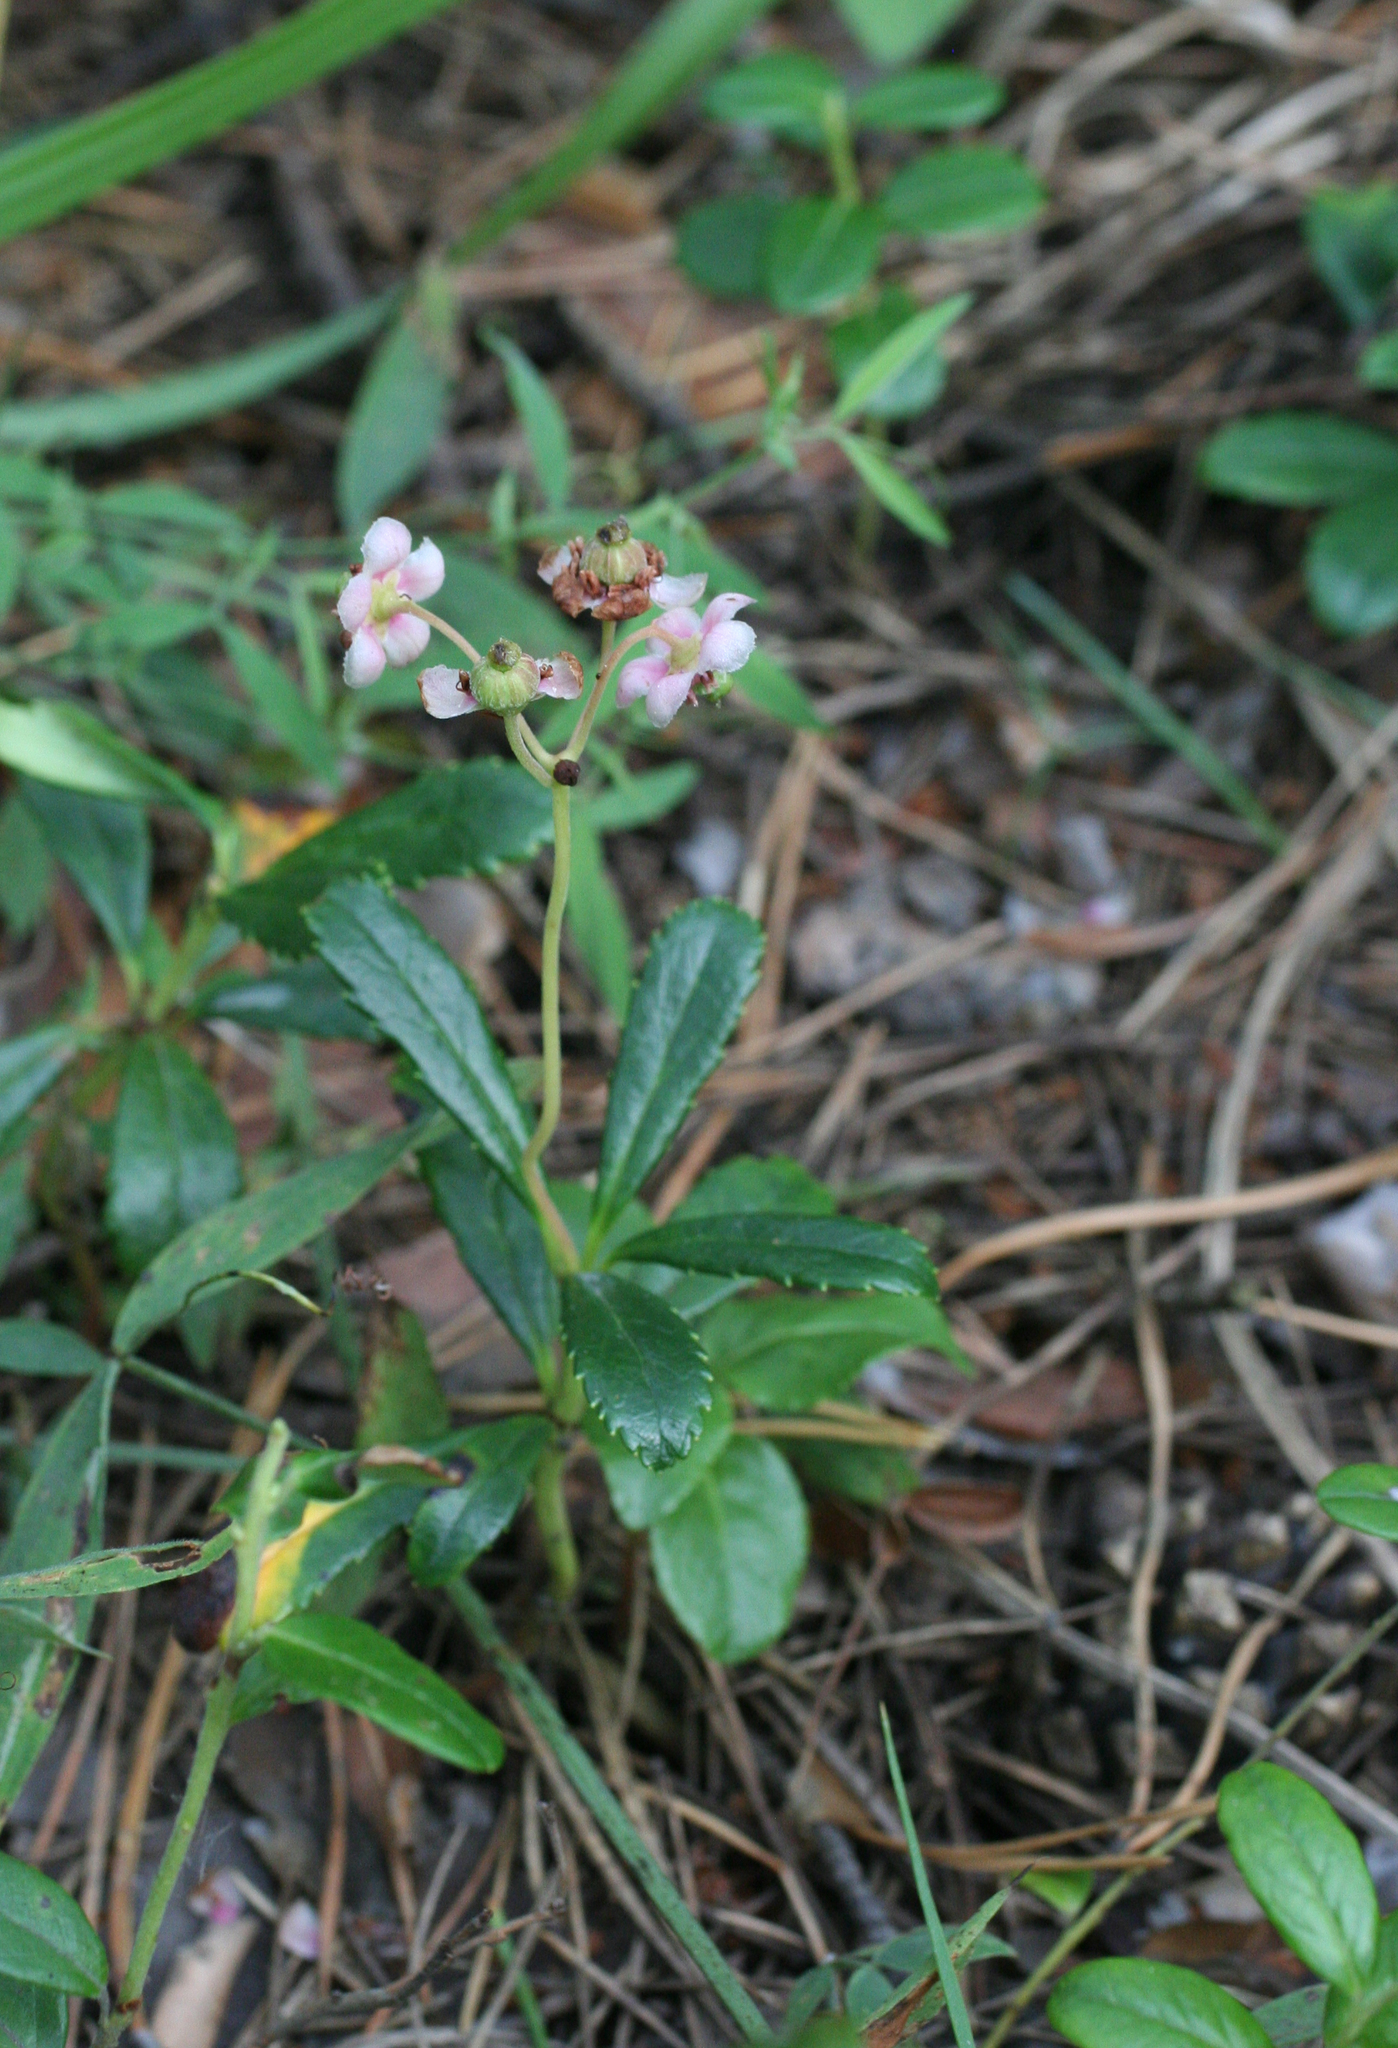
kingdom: Plantae
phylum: Tracheophyta
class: Magnoliopsida
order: Ericales
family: Ericaceae
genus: Chimaphila
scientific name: Chimaphila umbellata
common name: Pipsissewa
